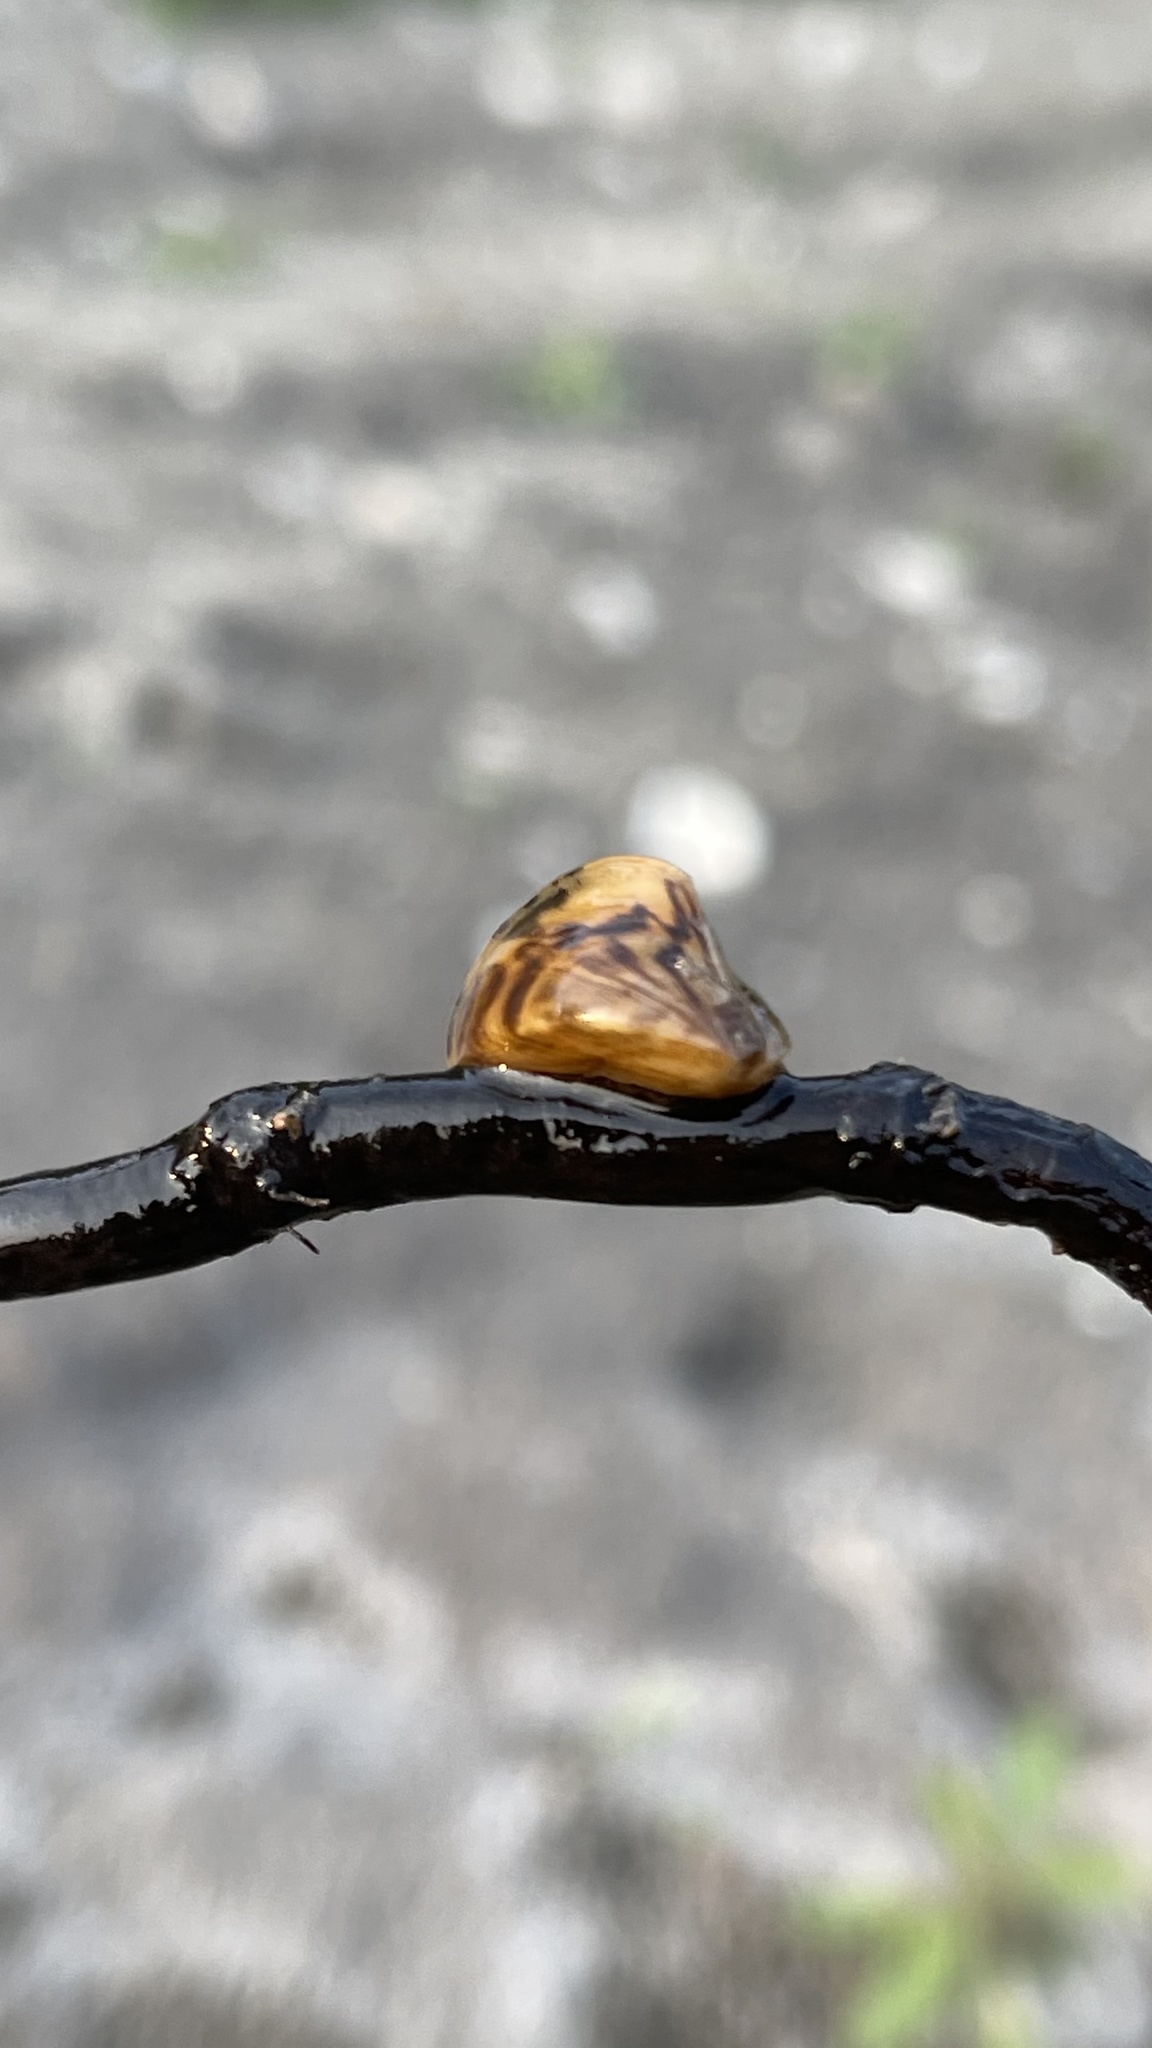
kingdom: Animalia
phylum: Mollusca
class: Bivalvia
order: Myida
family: Dreissenidae
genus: Dreissena
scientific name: Dreissena polymorpha
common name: Zebra mussel
